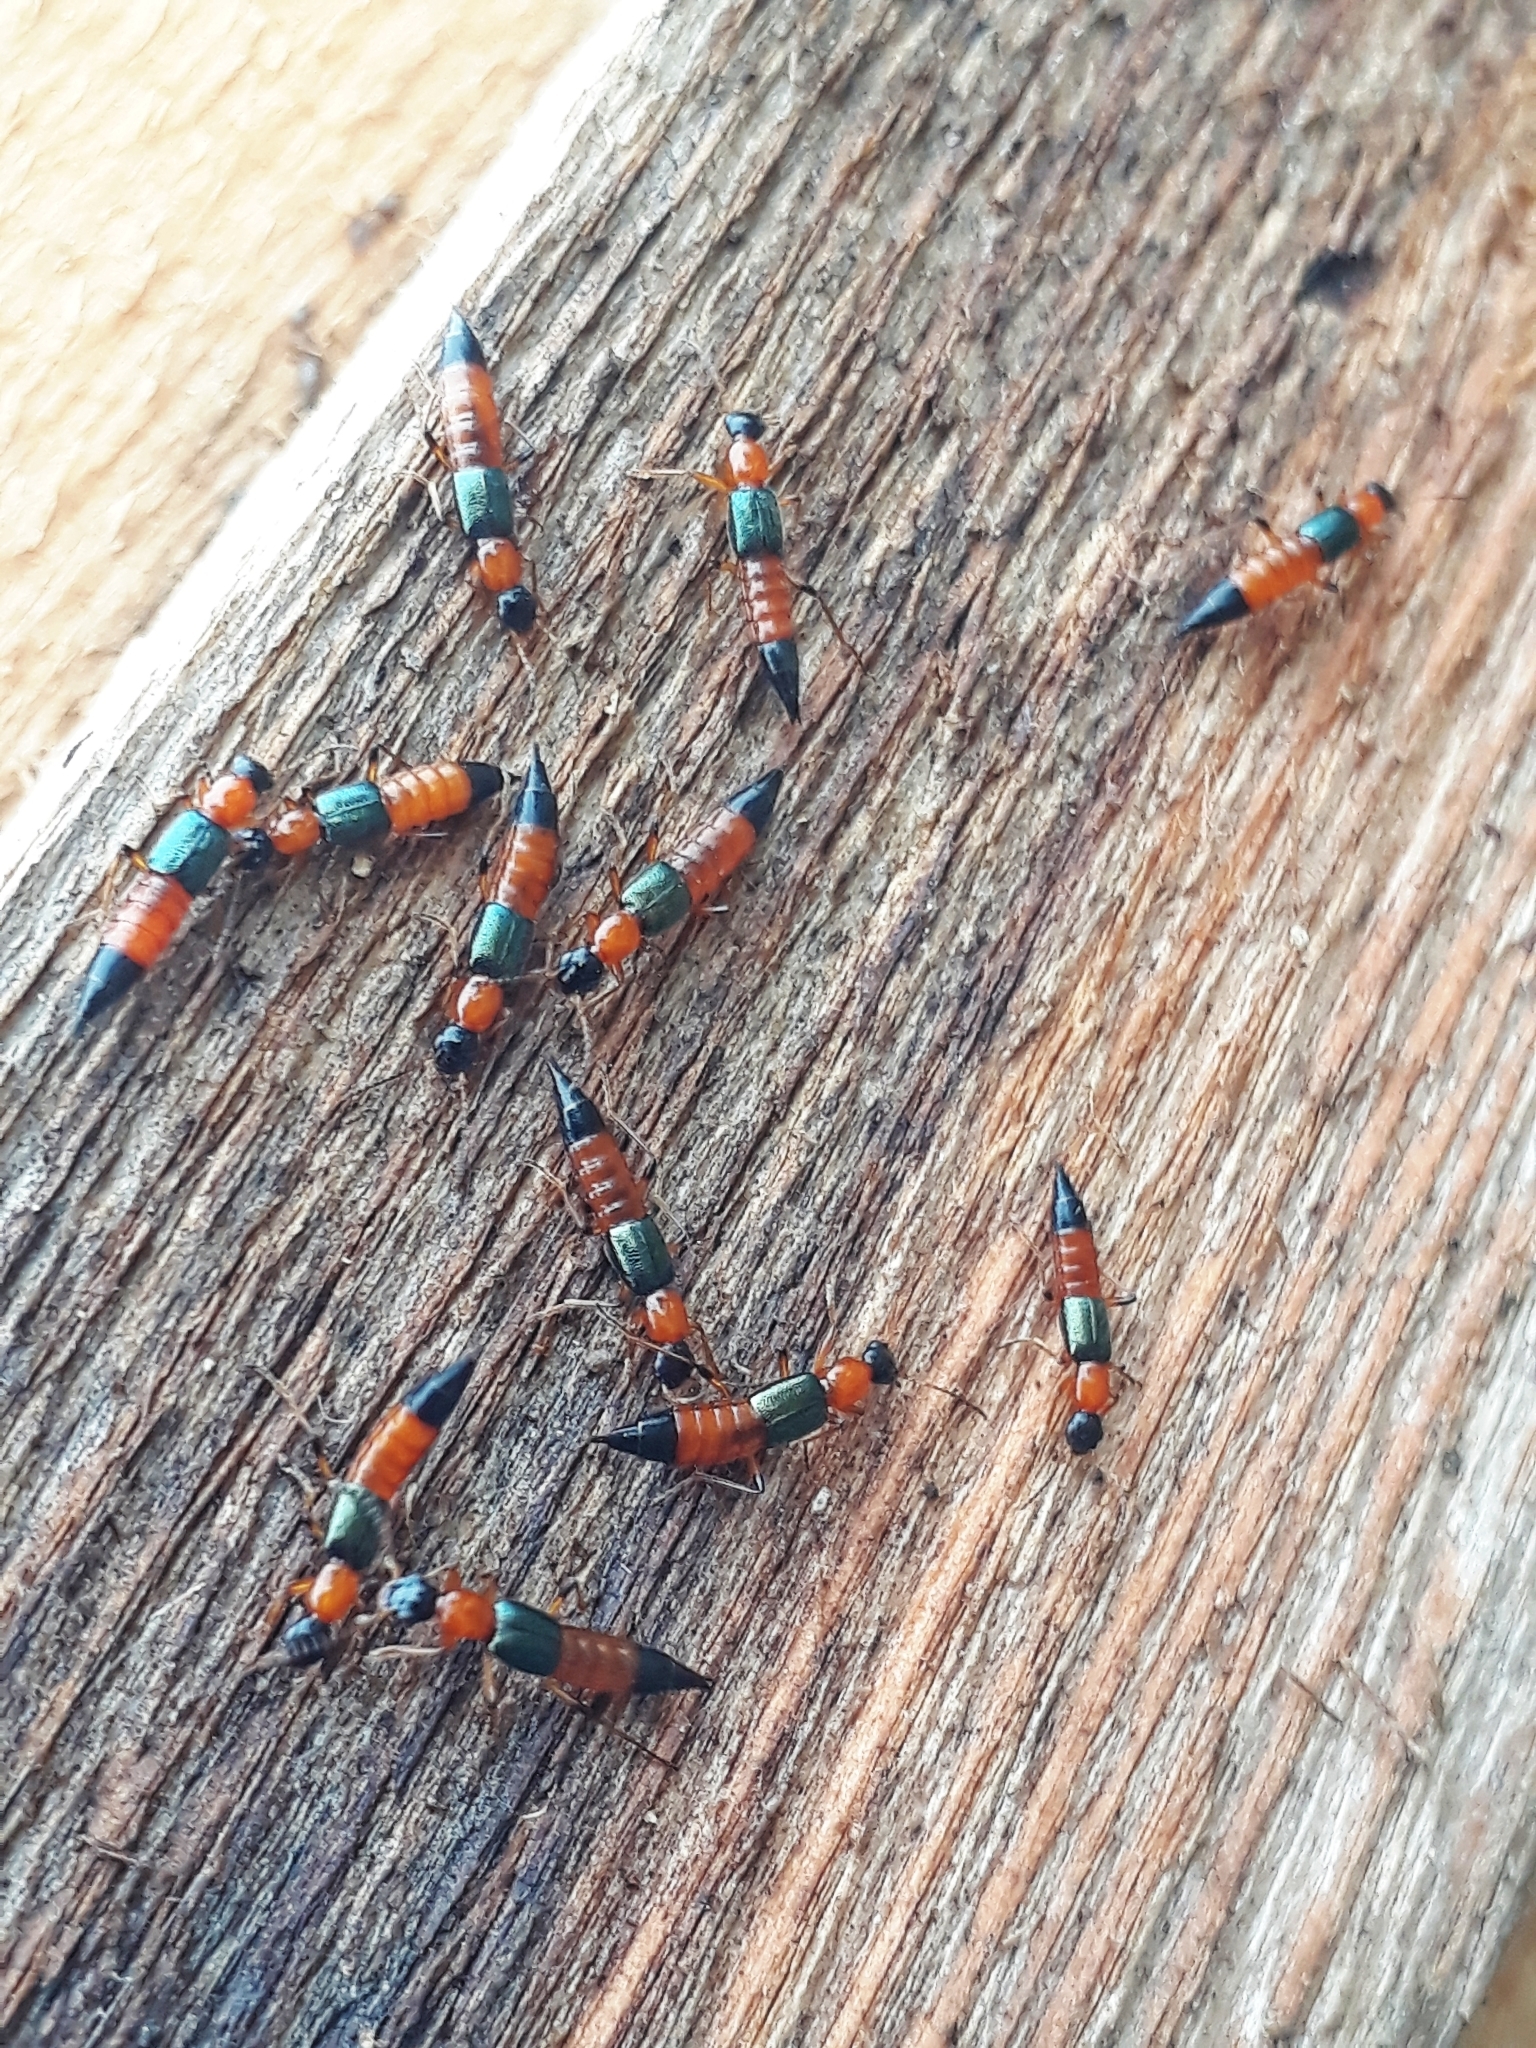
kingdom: Animalia
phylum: Arthropoda
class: Insecta
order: Coleoptera
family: Staphylinidae
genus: Paederus
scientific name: Paederus fuscipes
